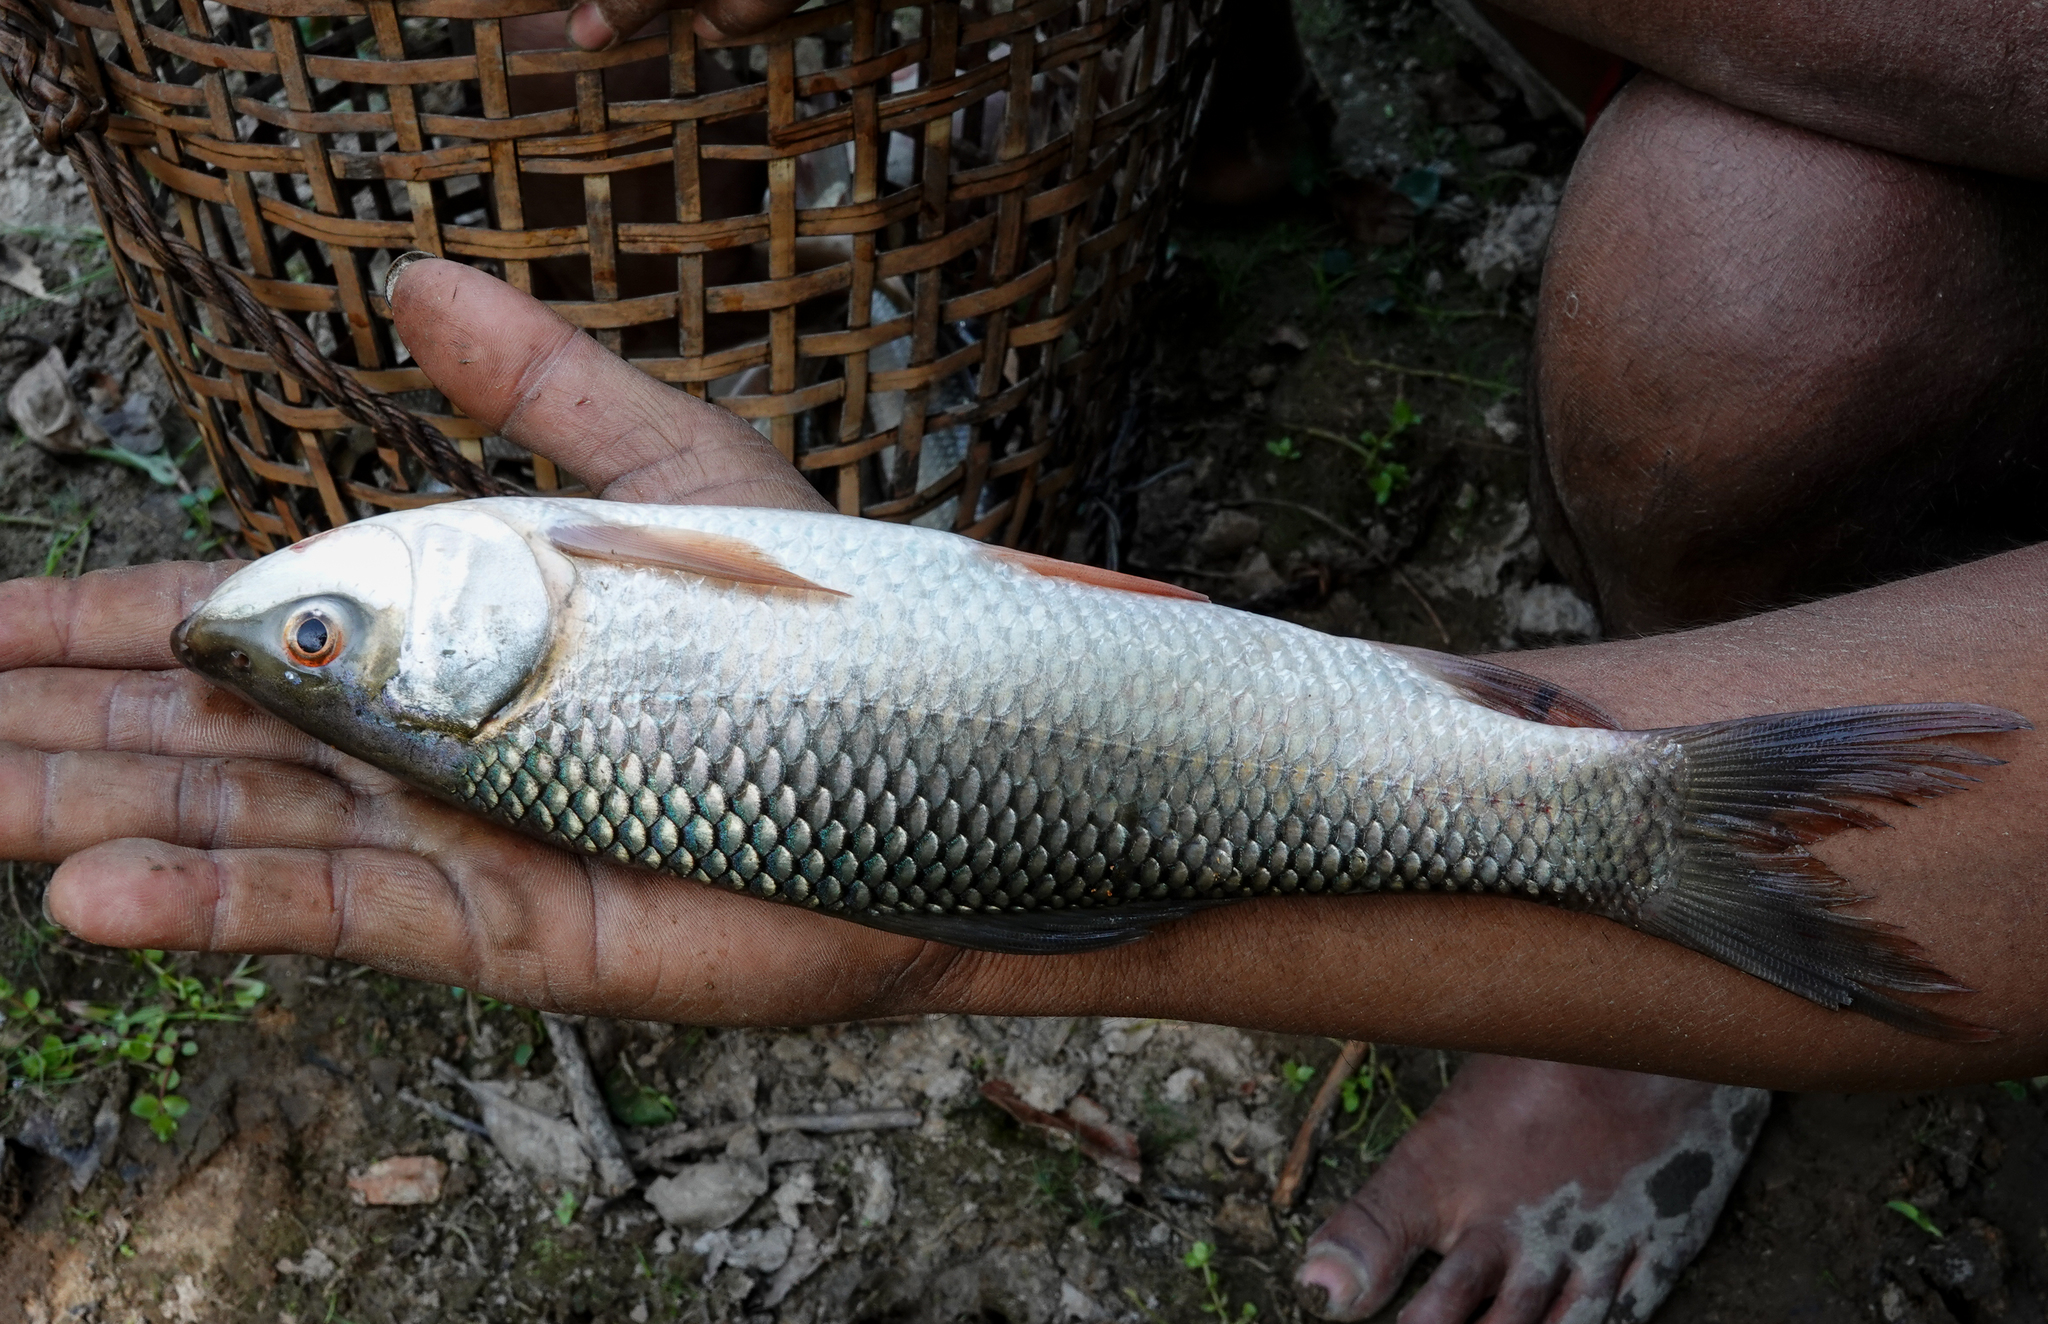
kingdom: Animalia
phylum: Chordata
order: Cypriniformes
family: Cyprinidae
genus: Labeo
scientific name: Labeo rohita
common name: Rohu
